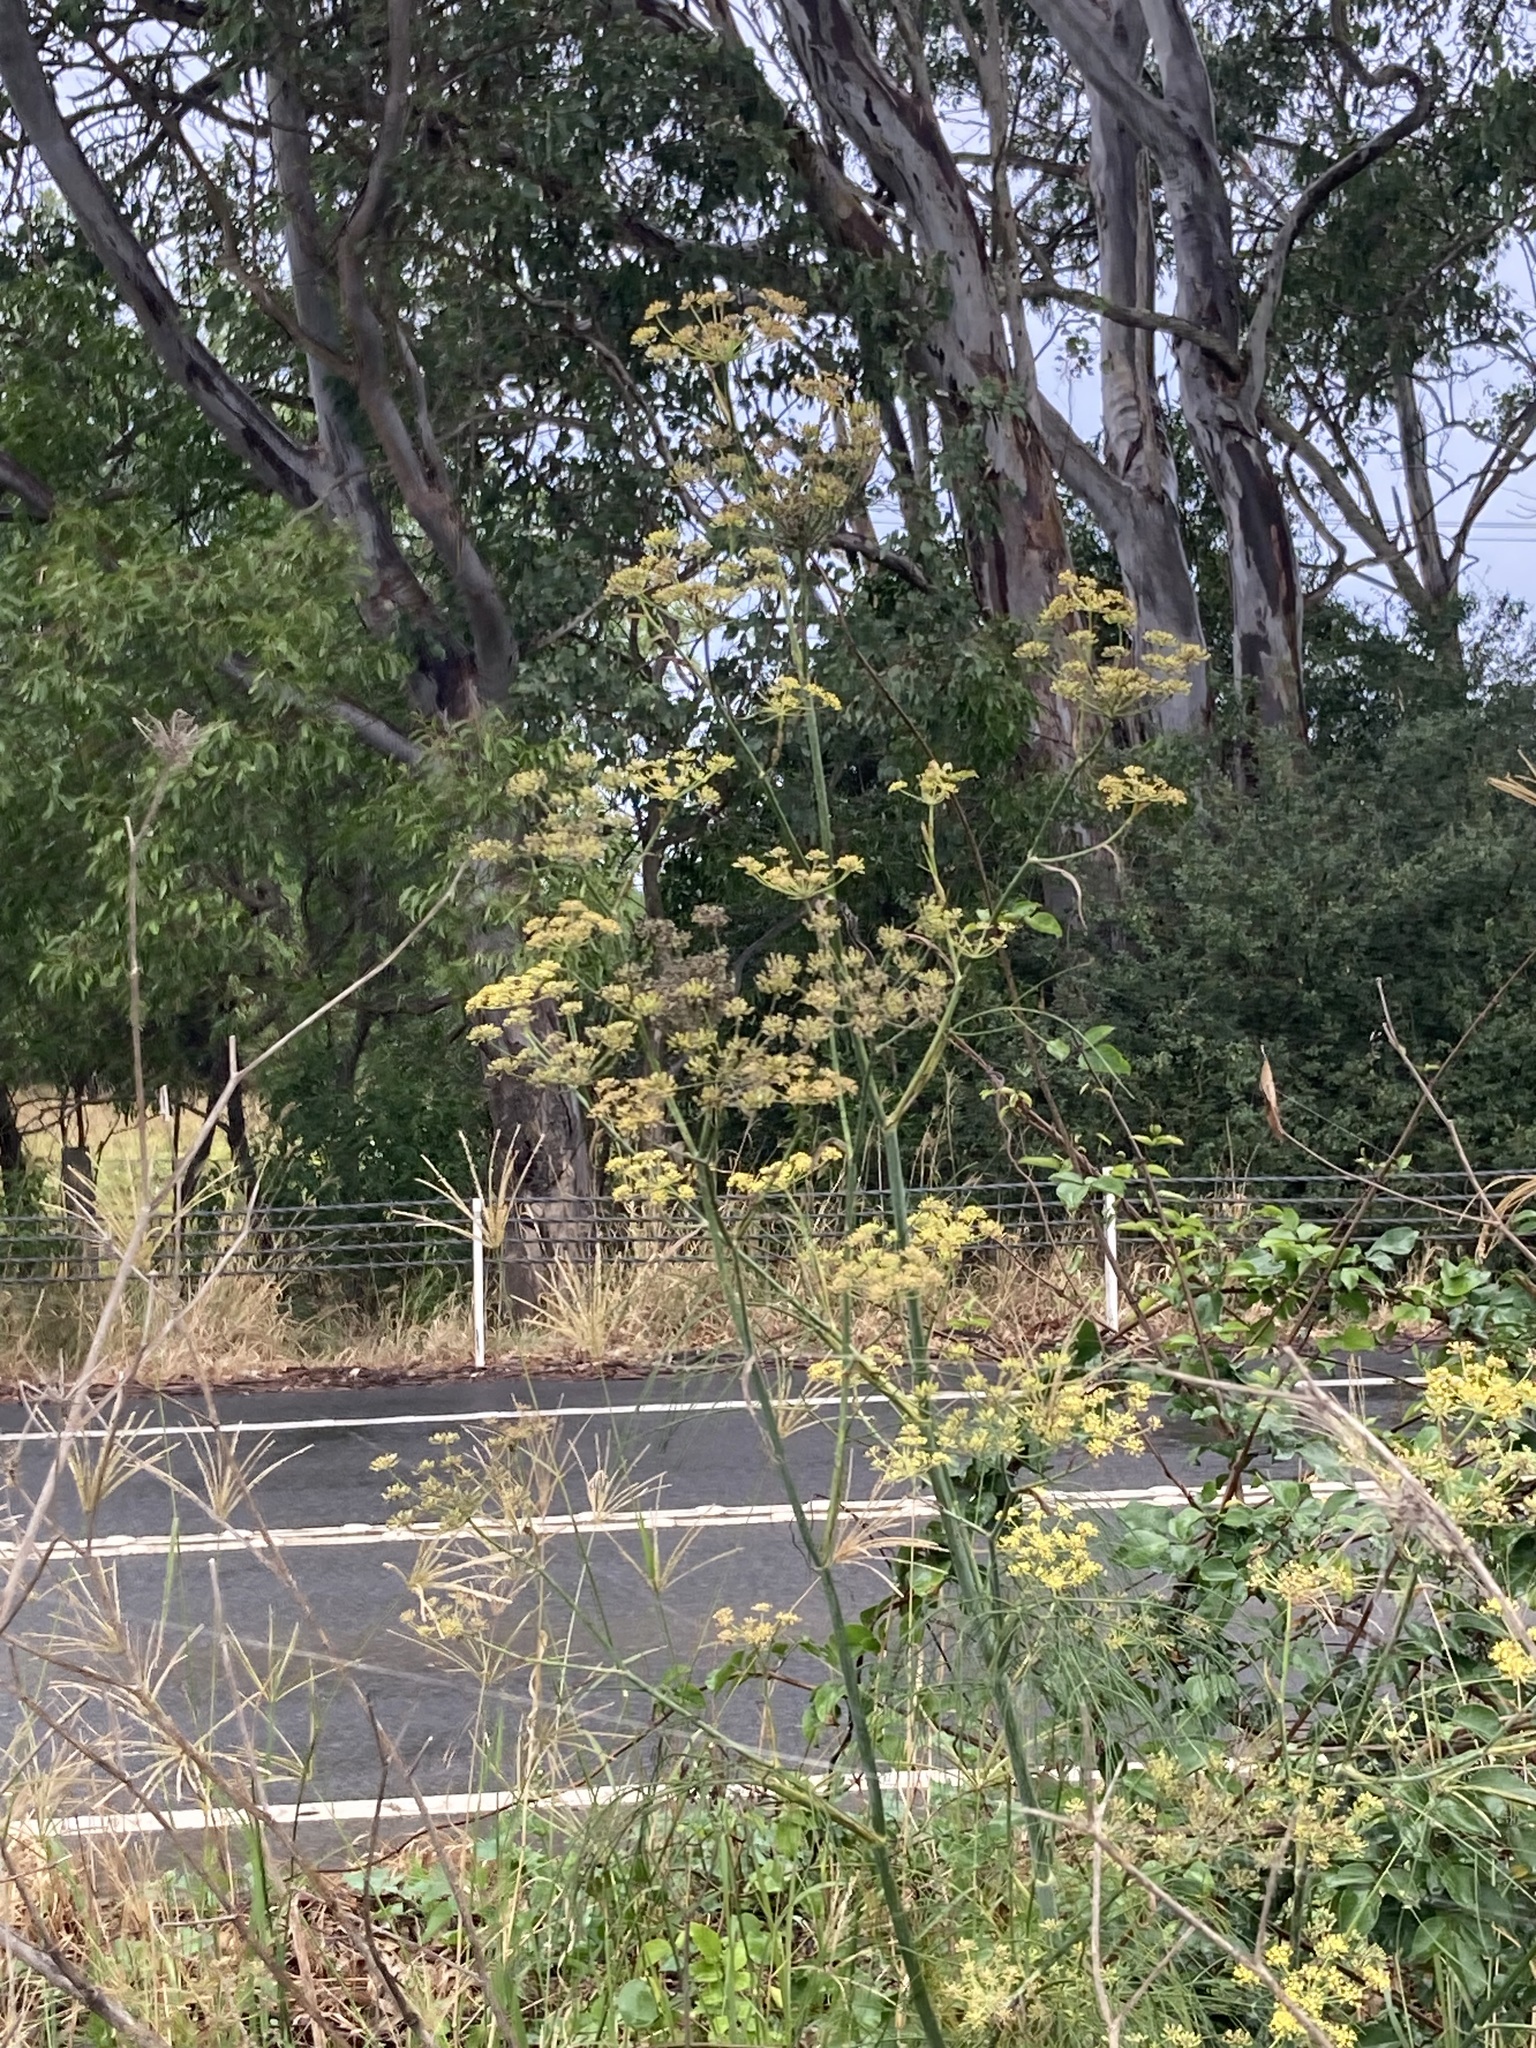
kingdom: Plantae
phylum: Tracheophyta
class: Magnoliopsida
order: Apiales
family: Apiaceae
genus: Foeniculum
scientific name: Foeniculum vulgare
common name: Fennel
